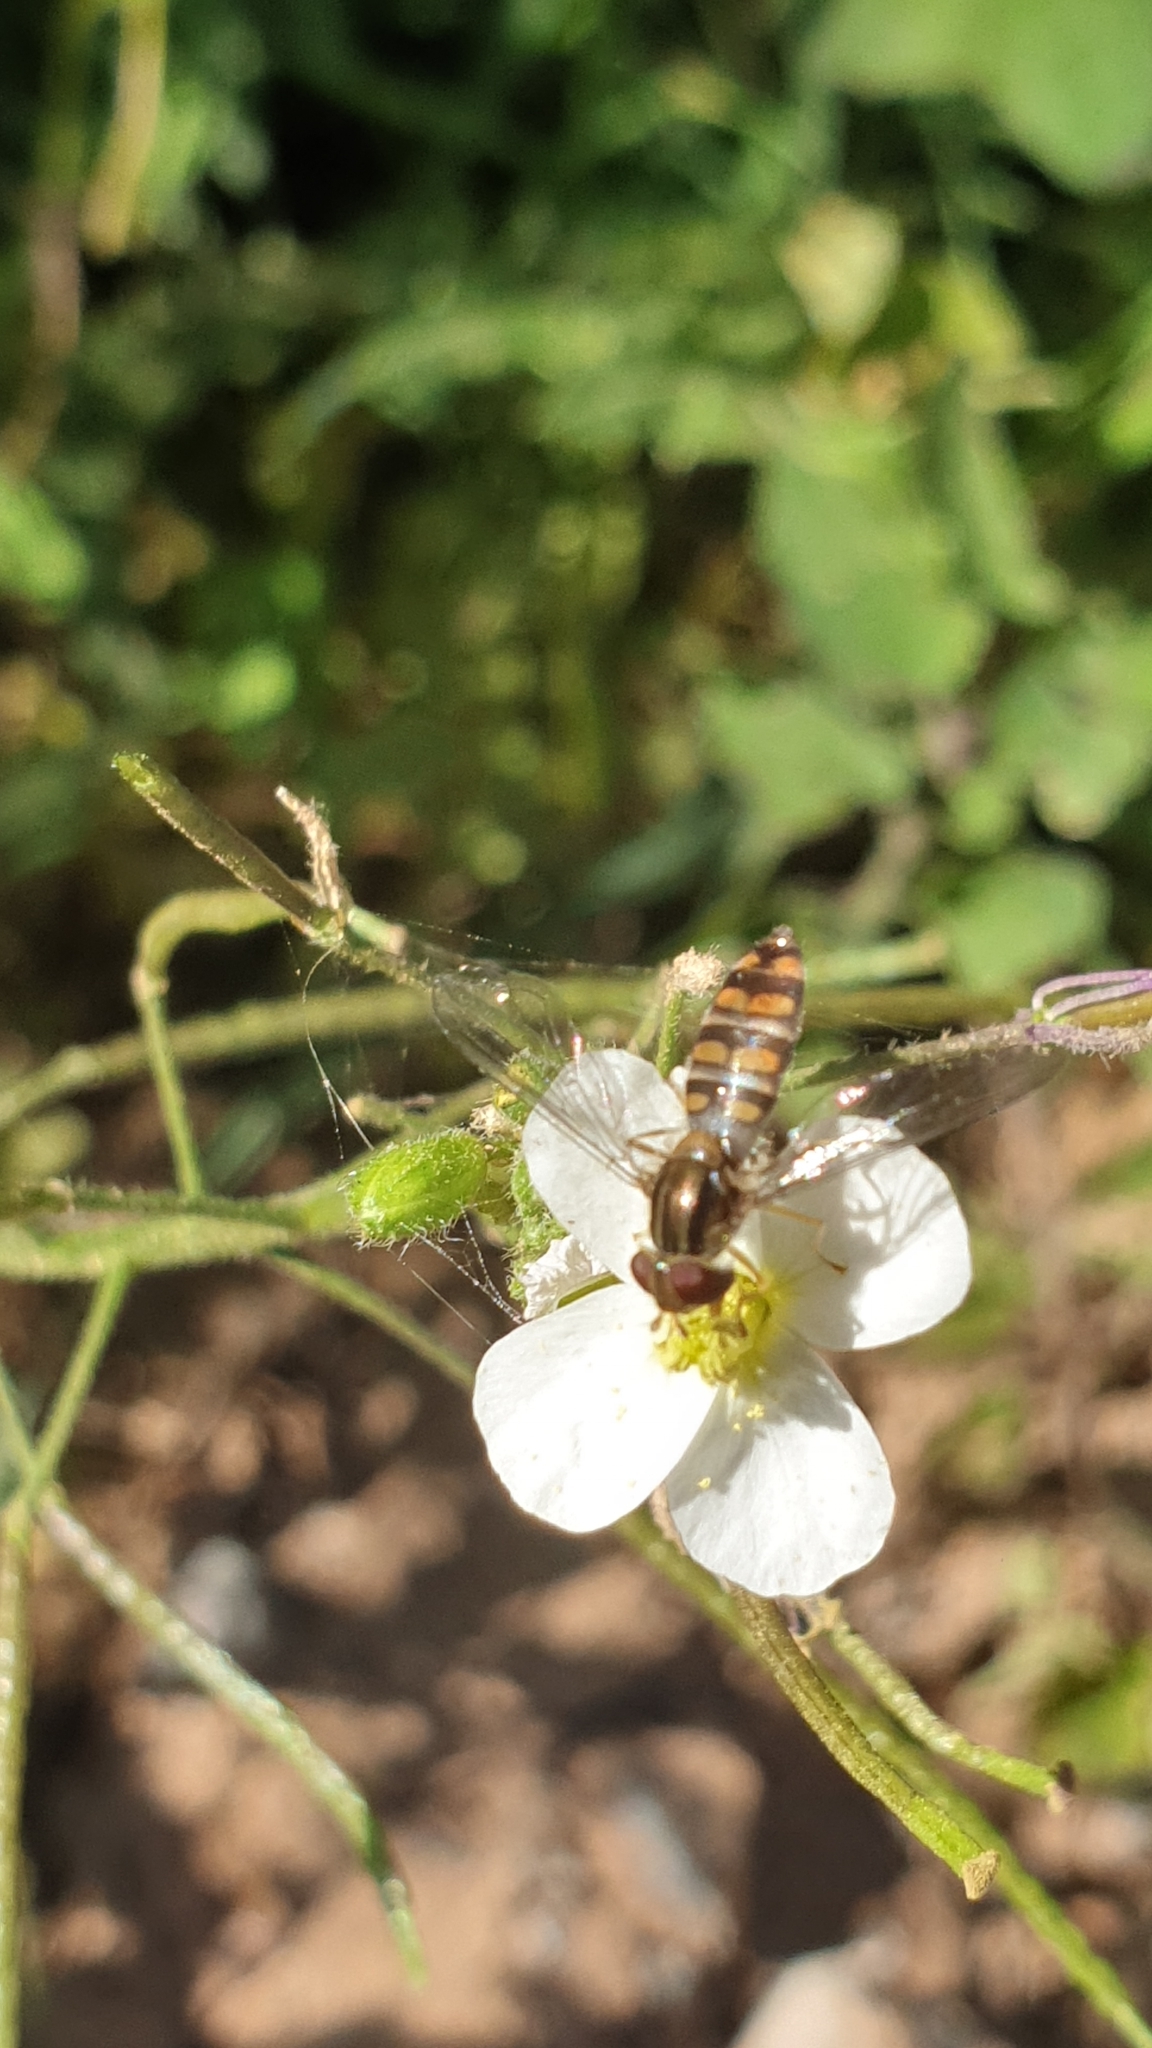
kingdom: Animalia
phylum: Arthropoda
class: Insecta
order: Diptera
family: Syrphidae
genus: Episyrphus
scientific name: Episyrphus balteatus
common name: Marmalade hoverfly
